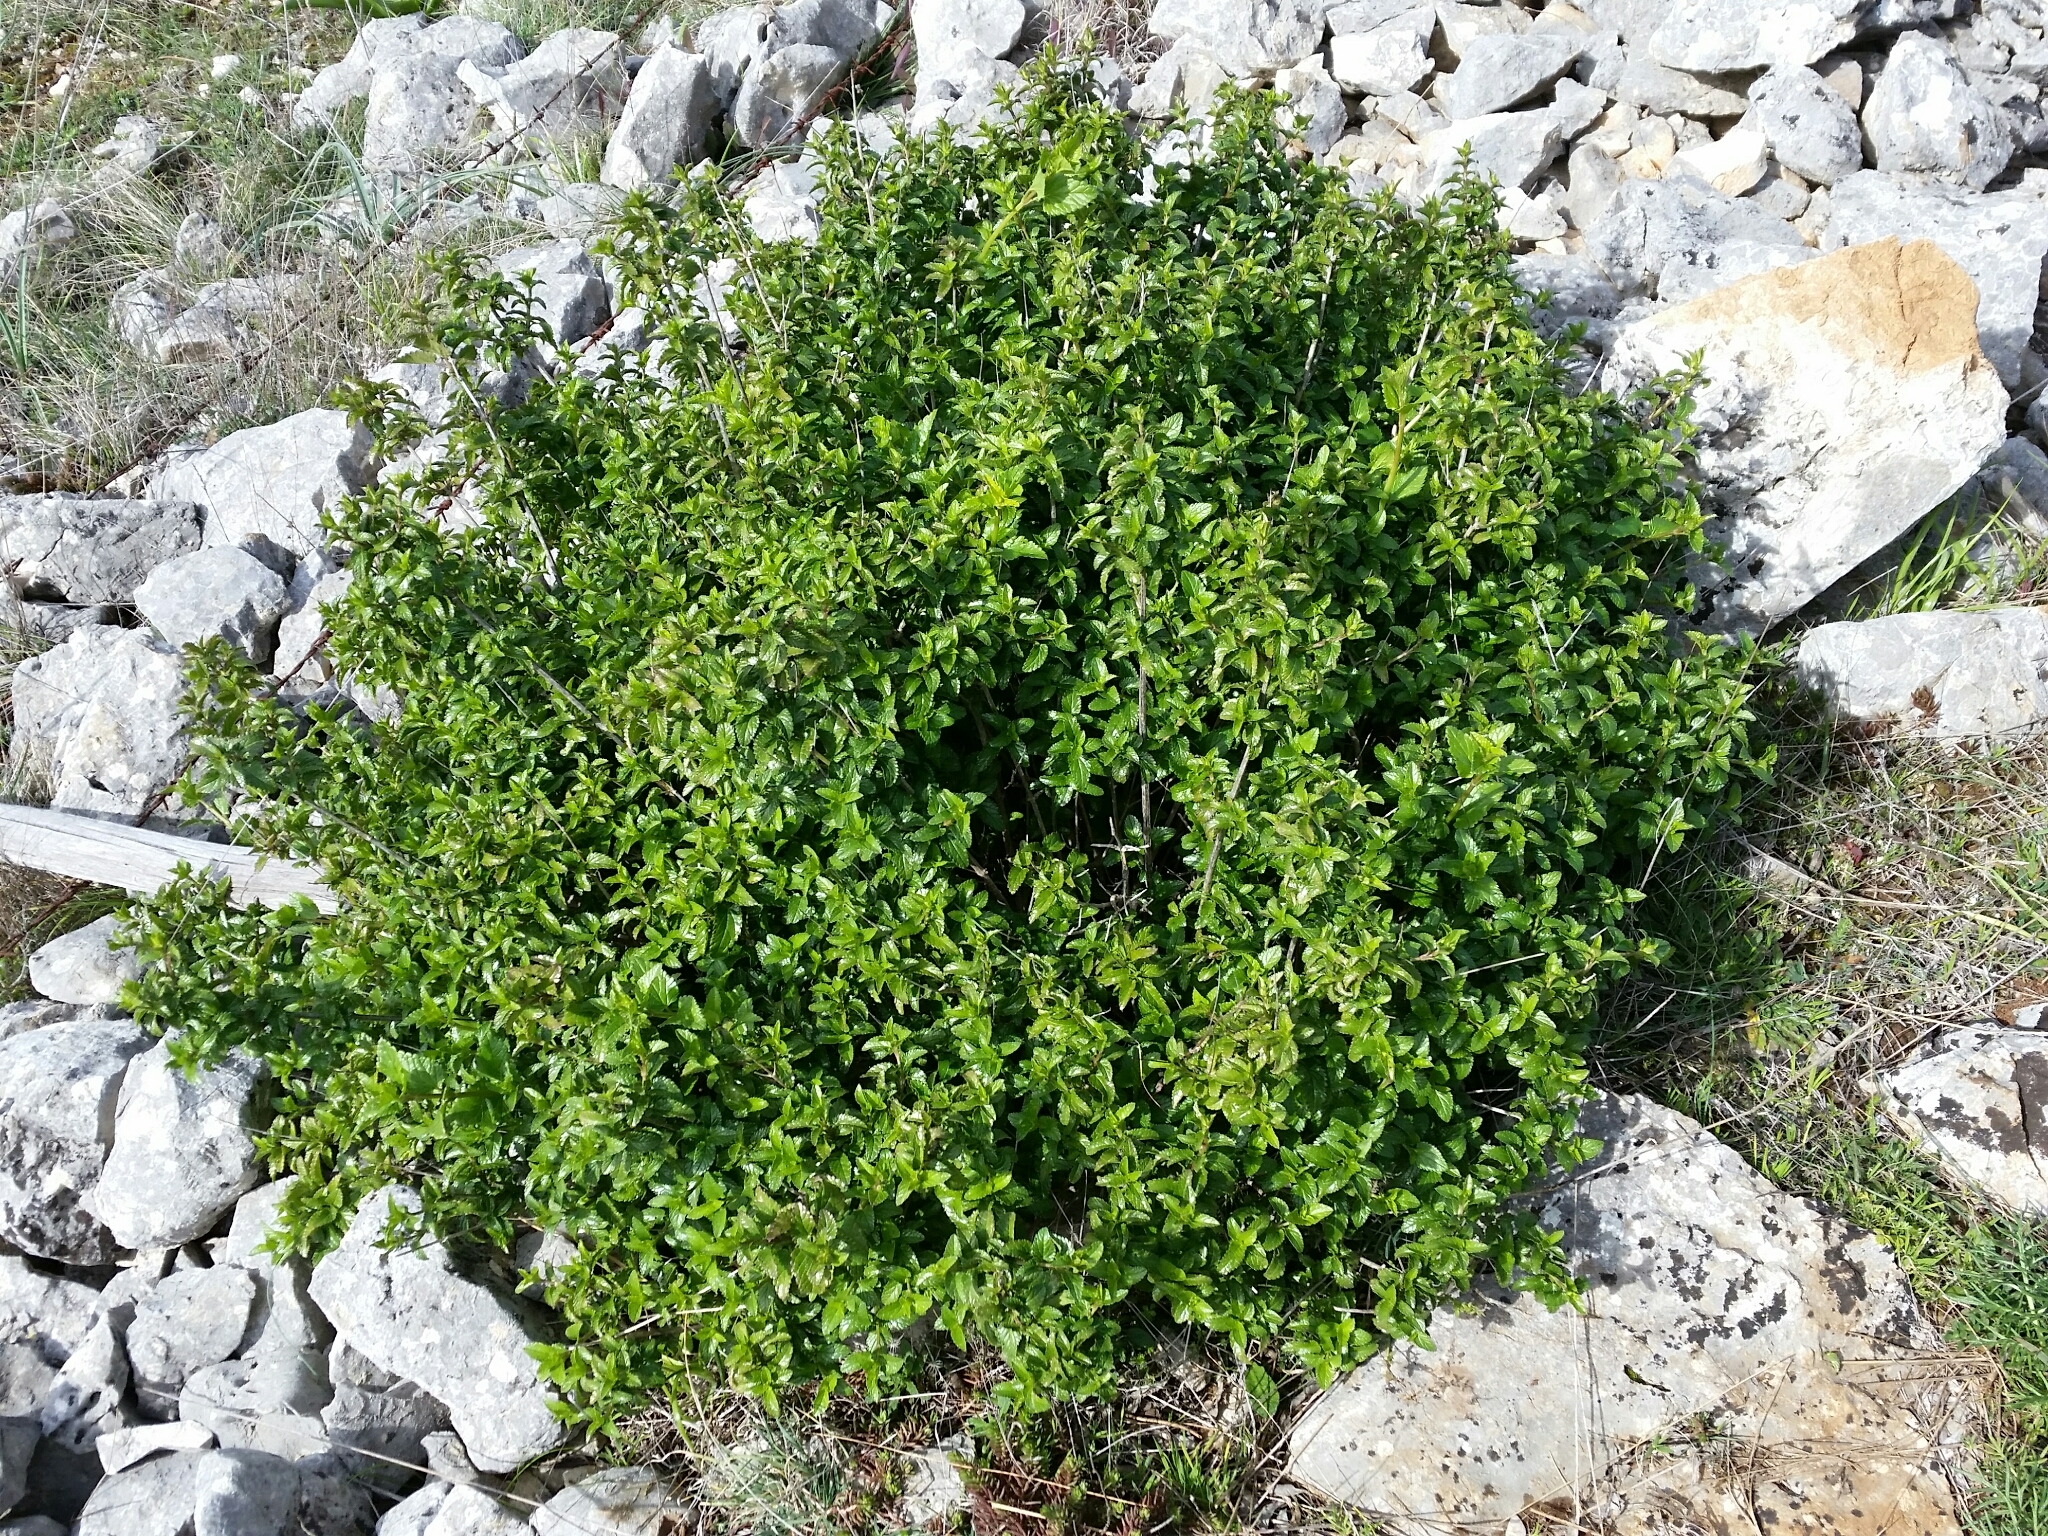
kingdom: Plantae
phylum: Tracheophyta
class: Magnoliopsida
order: Lamiales
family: Lamiaceae
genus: Prasium
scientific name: Prasium majus
